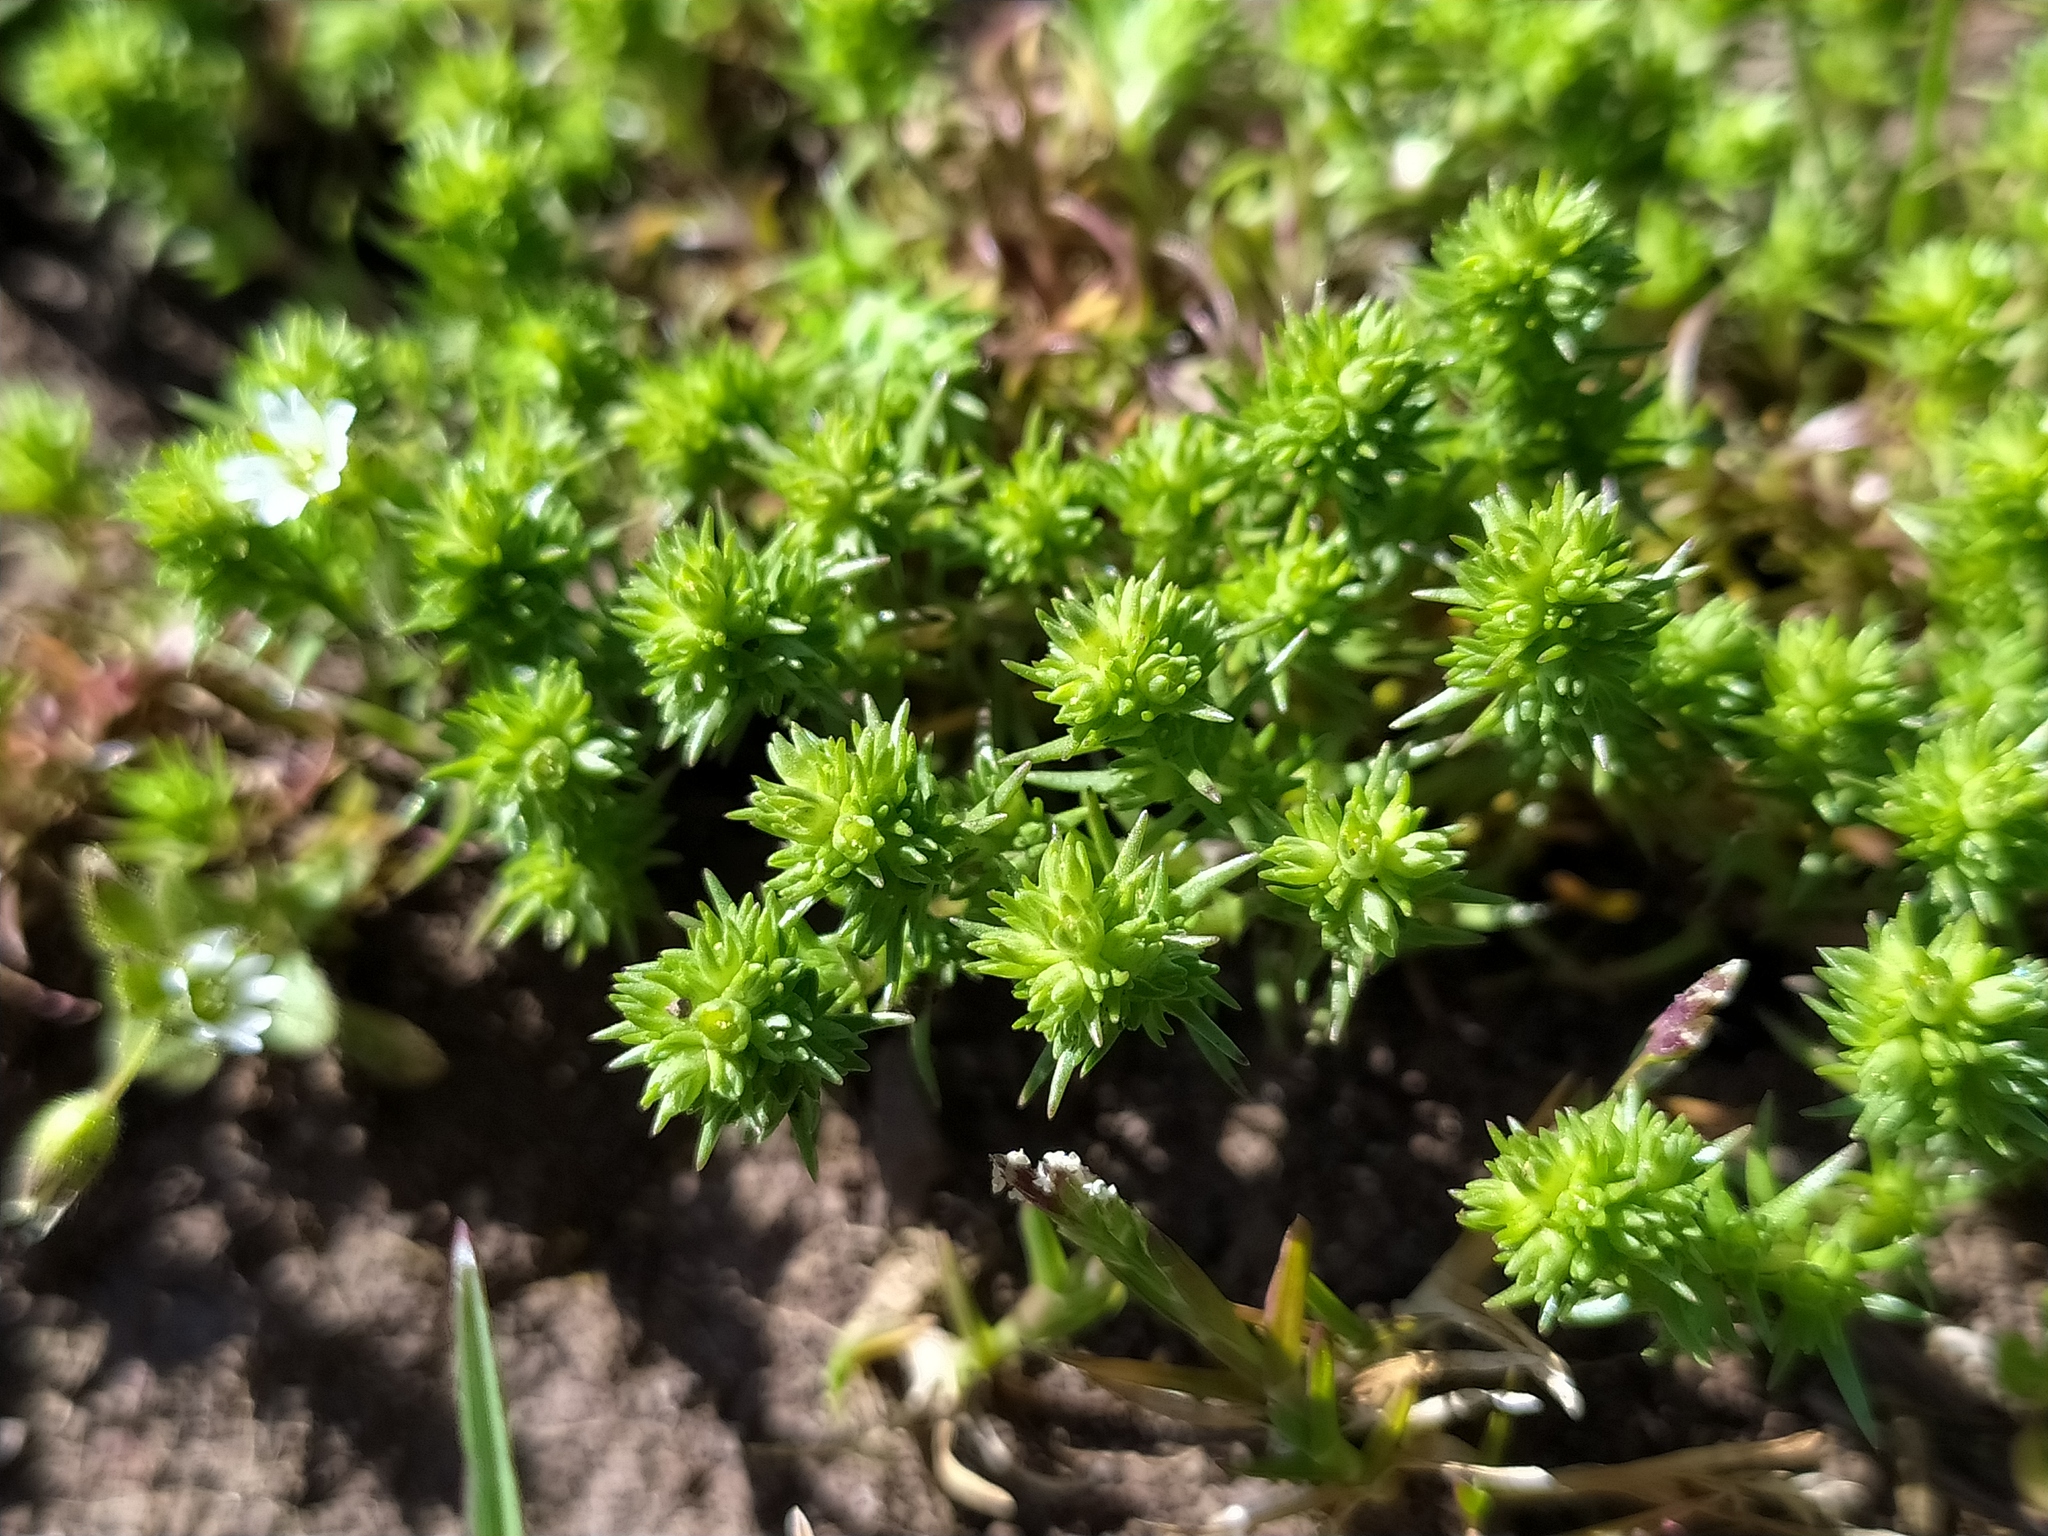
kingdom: Plantae
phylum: Tracheophyta
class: Magnoliopsida
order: Caryophyllales
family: Caryophyllaceae
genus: Scleranthus
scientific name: Scleranthus verticillatus
